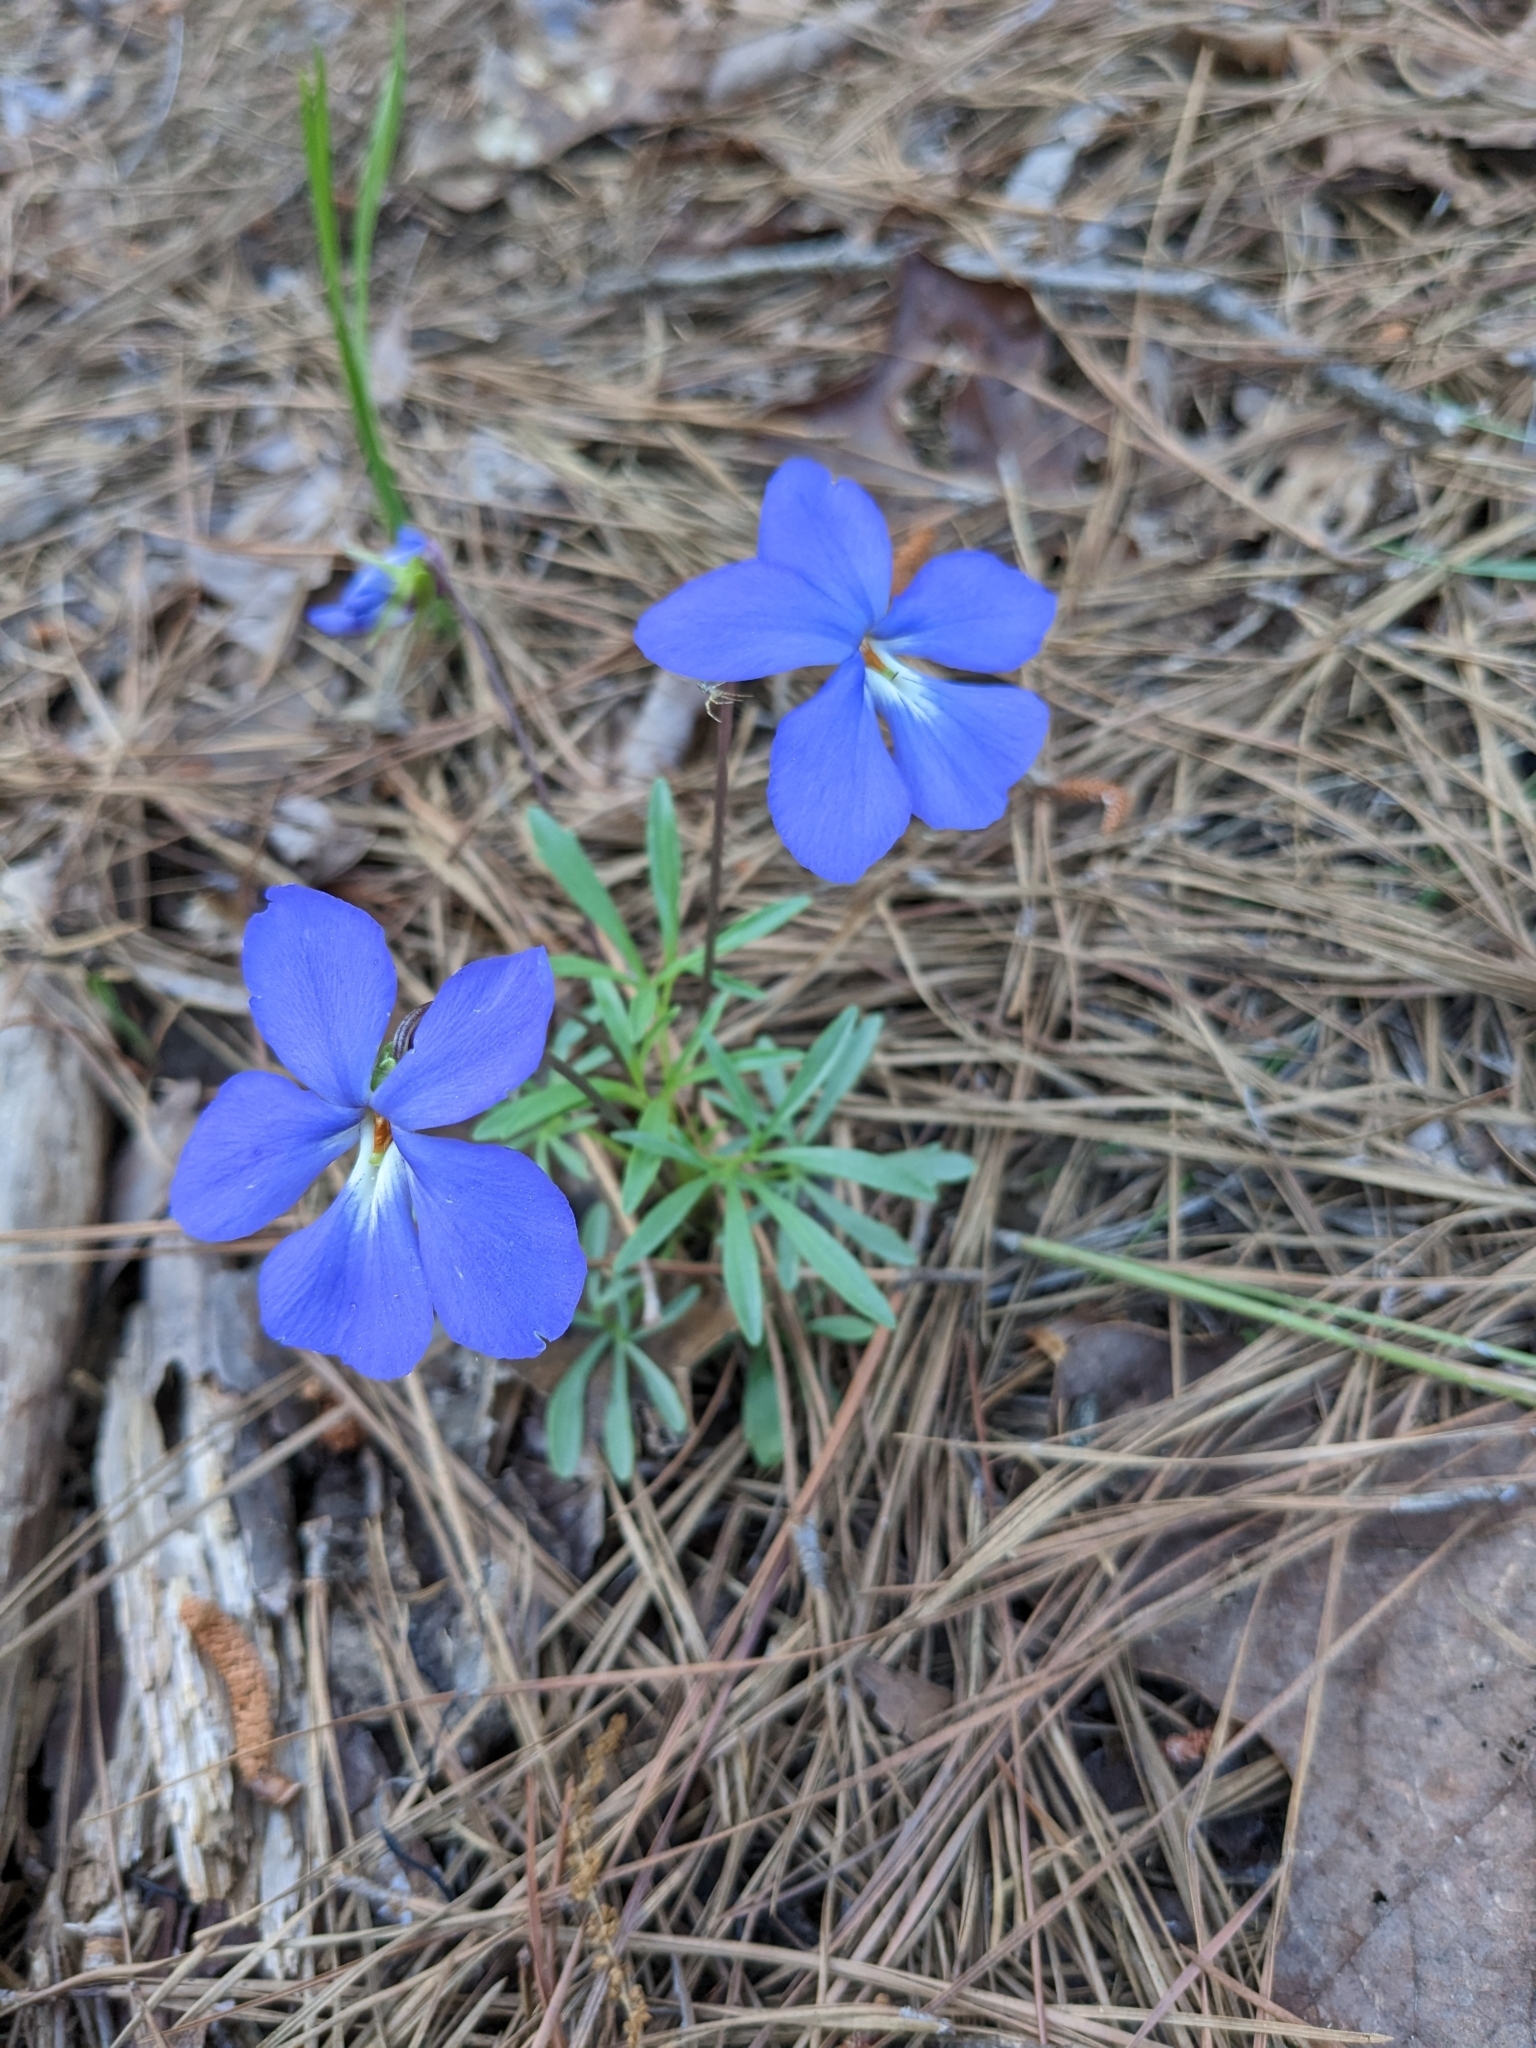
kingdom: Plantae
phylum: Tracheophyta
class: Magnoliopsida
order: Malpighiales
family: Violaceae
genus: Viola
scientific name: Viola pedata
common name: Pansy violet
